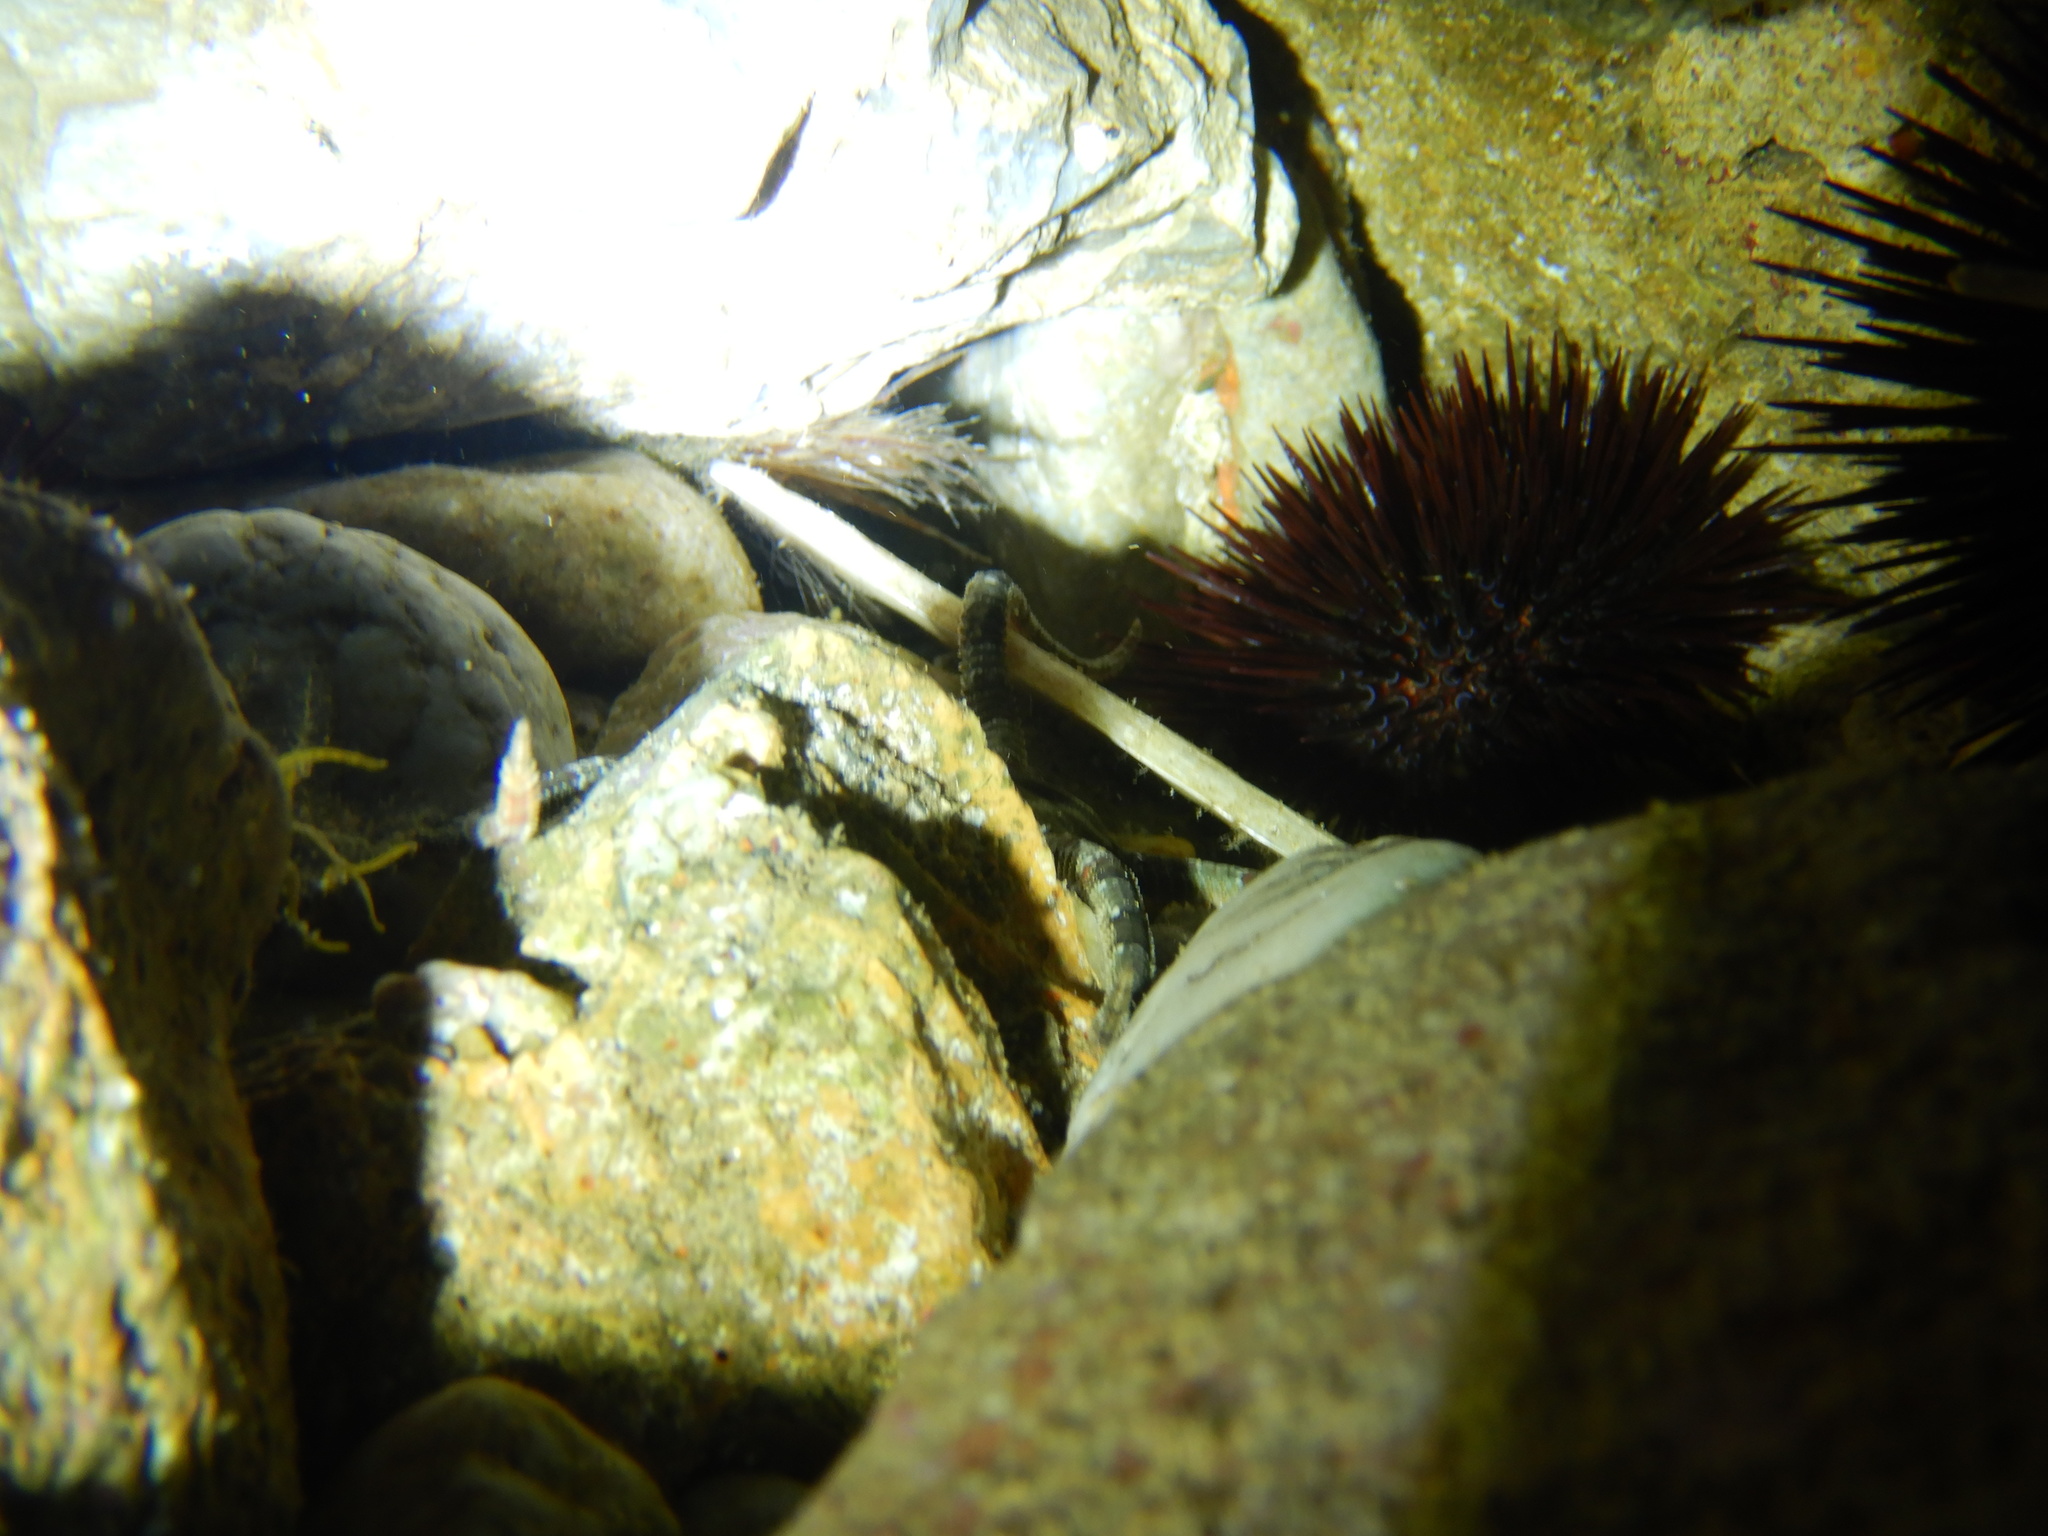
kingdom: Animalia
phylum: Echinodermata
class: Echinoidea
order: Camarodonta
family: Parechinidae
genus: Paracentrotus
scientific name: Paracentrotus lividus
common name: Purple sea urchin
